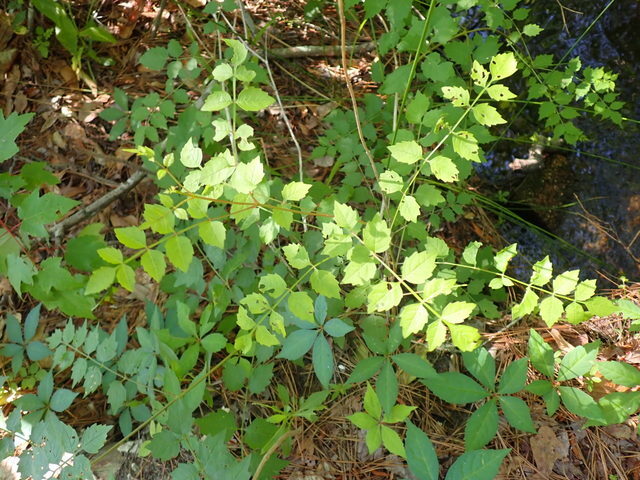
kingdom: Plantae
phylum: Tracheophyta
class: Magnoliopsida
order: Lamiales
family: Bignoniaceae
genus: Campsis
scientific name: Campsis radicans
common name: Trumpet-creeper
